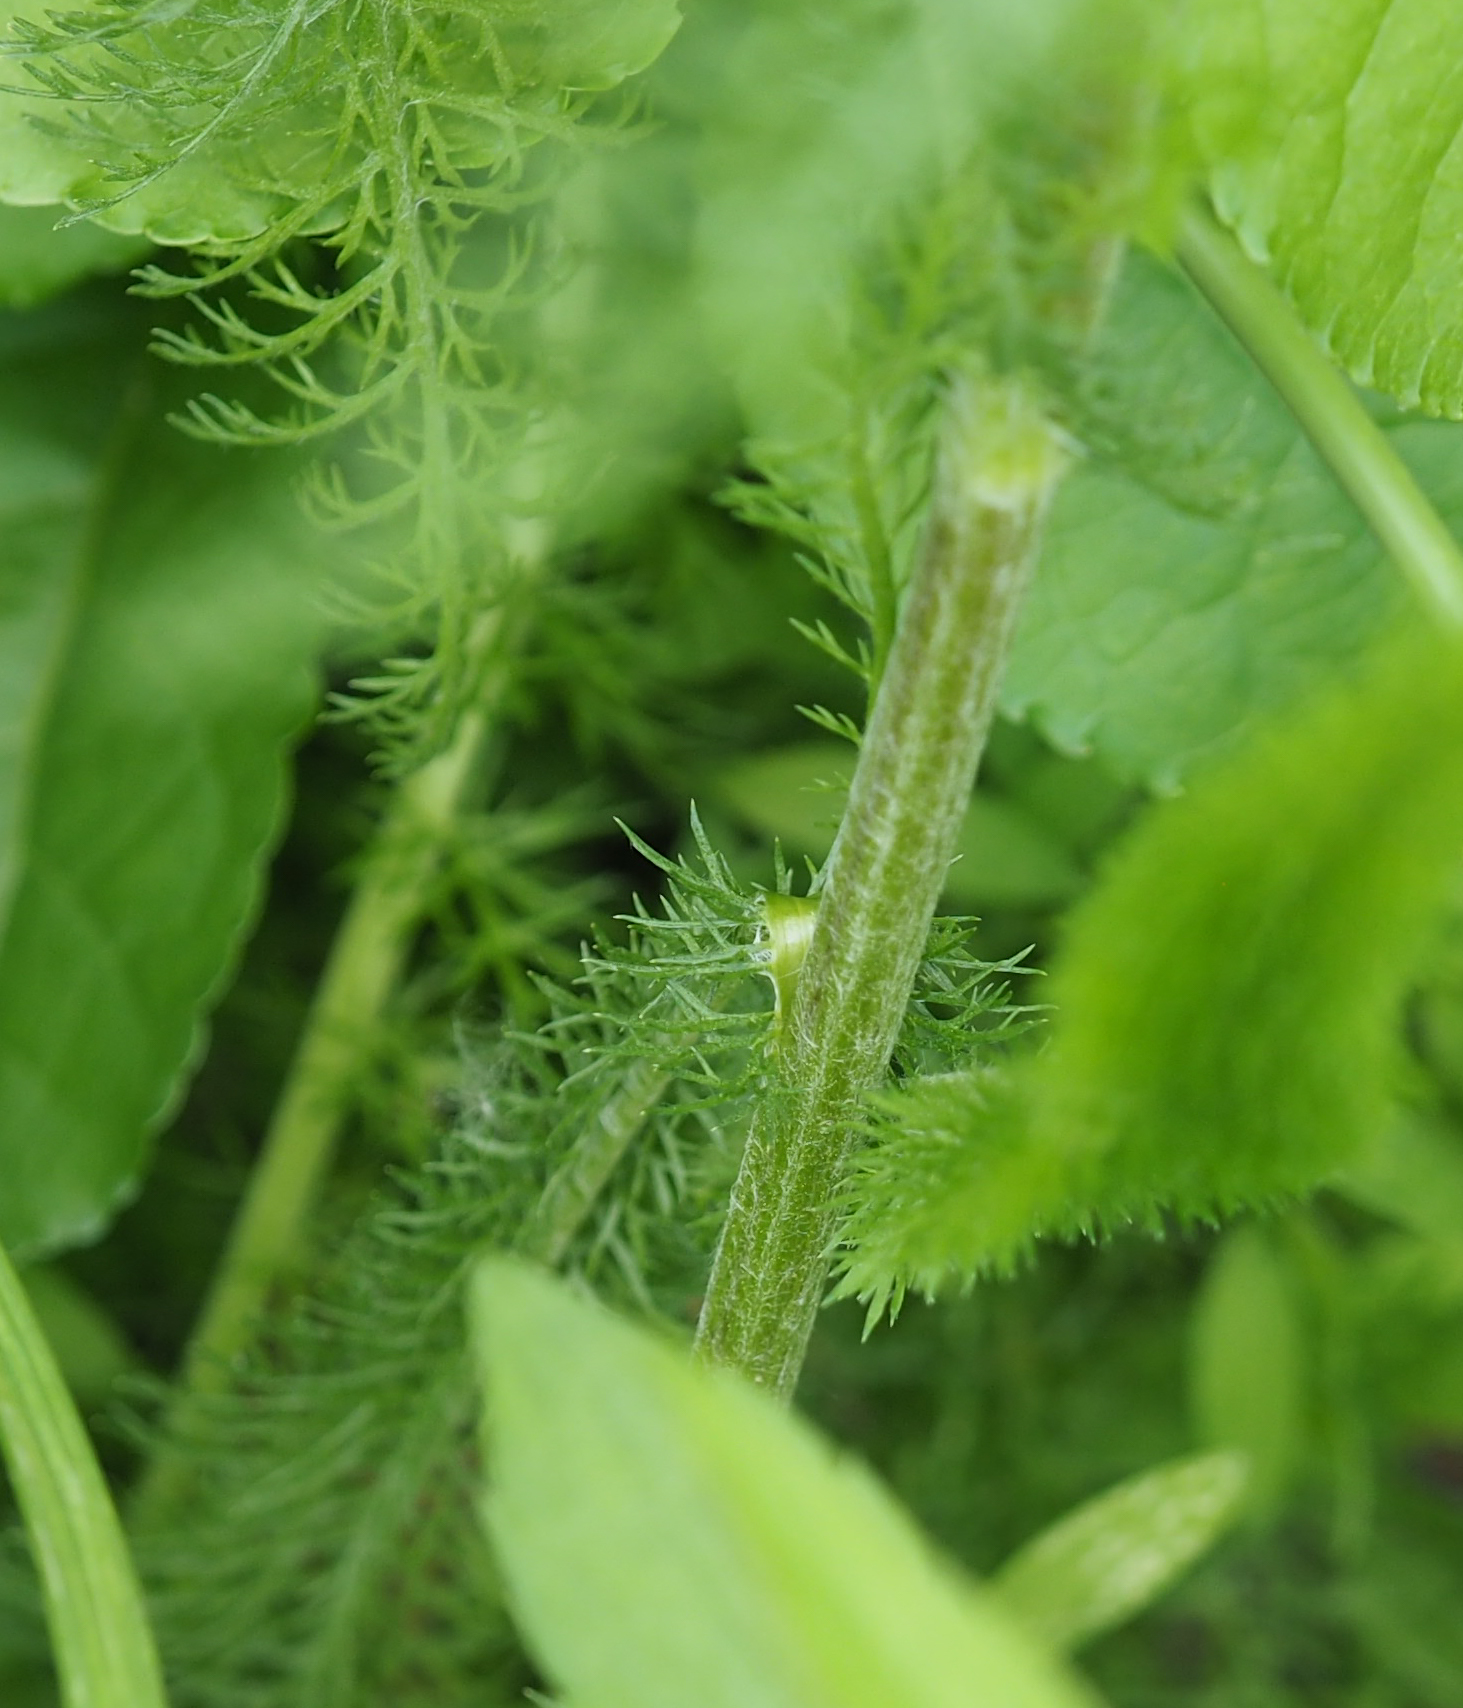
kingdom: Plantae
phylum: Tracheophyta
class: Magnoliopsida
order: Asterales
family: Asteraceae
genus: Achillea
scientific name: Achillea millefolium
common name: Yarrow
